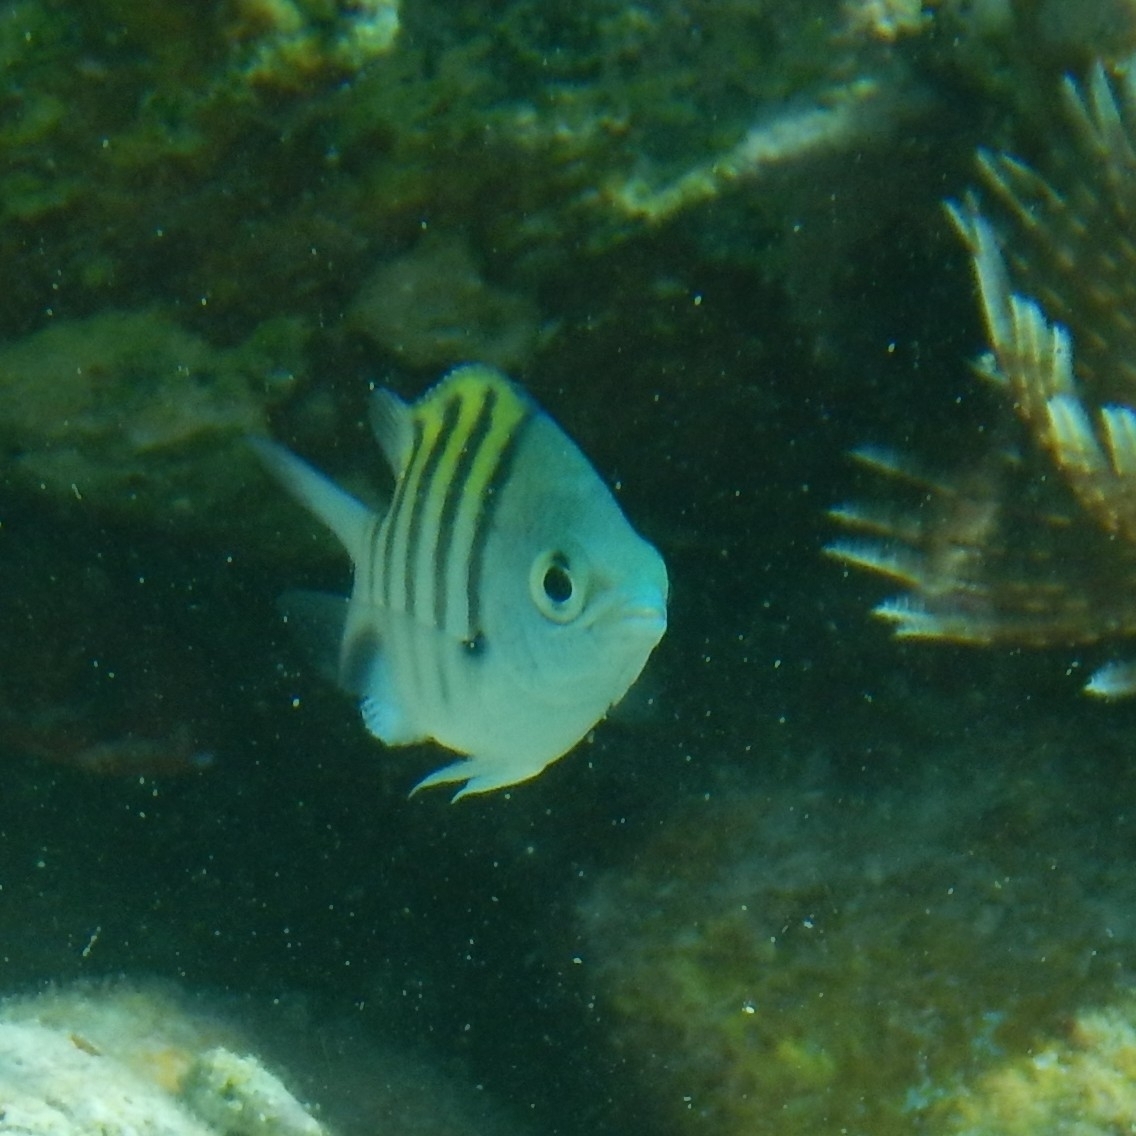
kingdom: Animalia
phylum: Chordata
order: Perciformes
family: Pomacentridae
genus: Abudefduf
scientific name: Abudefduf saxatilis
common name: Sergeant major
